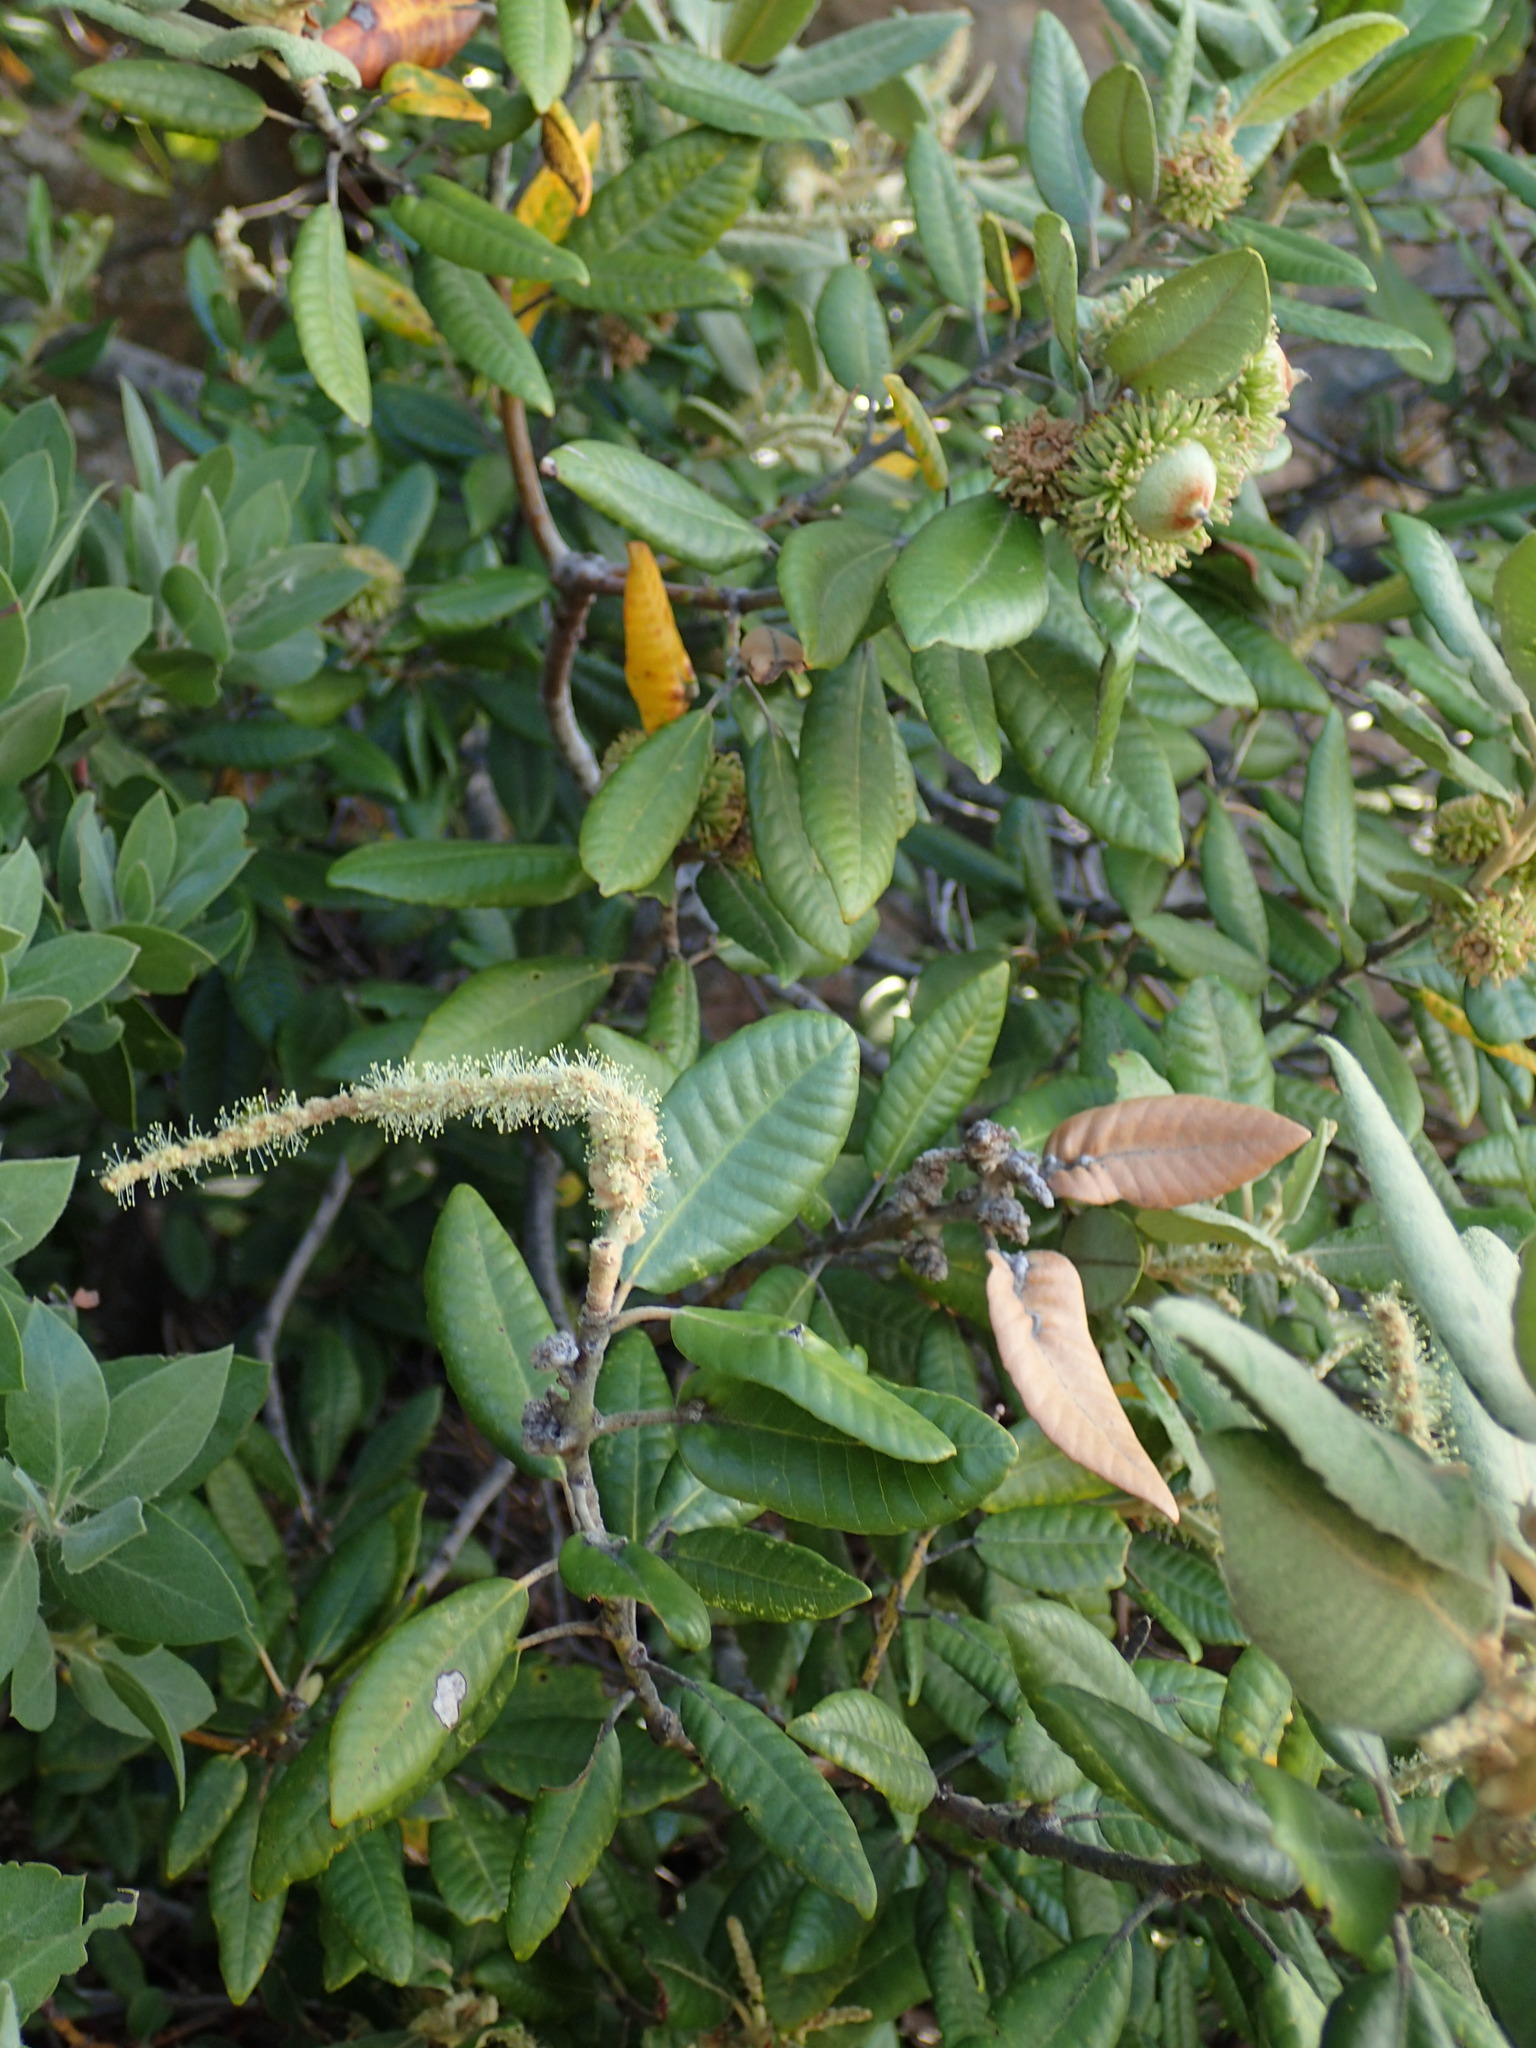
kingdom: Plantae
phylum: Tracheophyta
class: Magnoliopsida
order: Fagales
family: Fagaceae
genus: Notholithocarpus
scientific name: Notholithocarpus densiflorus
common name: Tan bark oak
